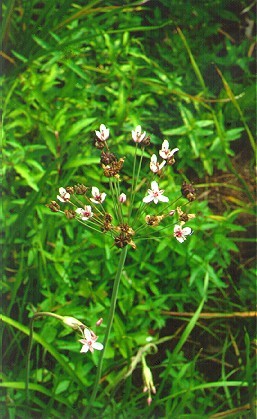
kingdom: Plantae
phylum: Tracheophyta
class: Liliopsida
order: Alismatales
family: Butomaceae
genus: Butomus
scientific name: Butomus umbellatus
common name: Flowering-rush
